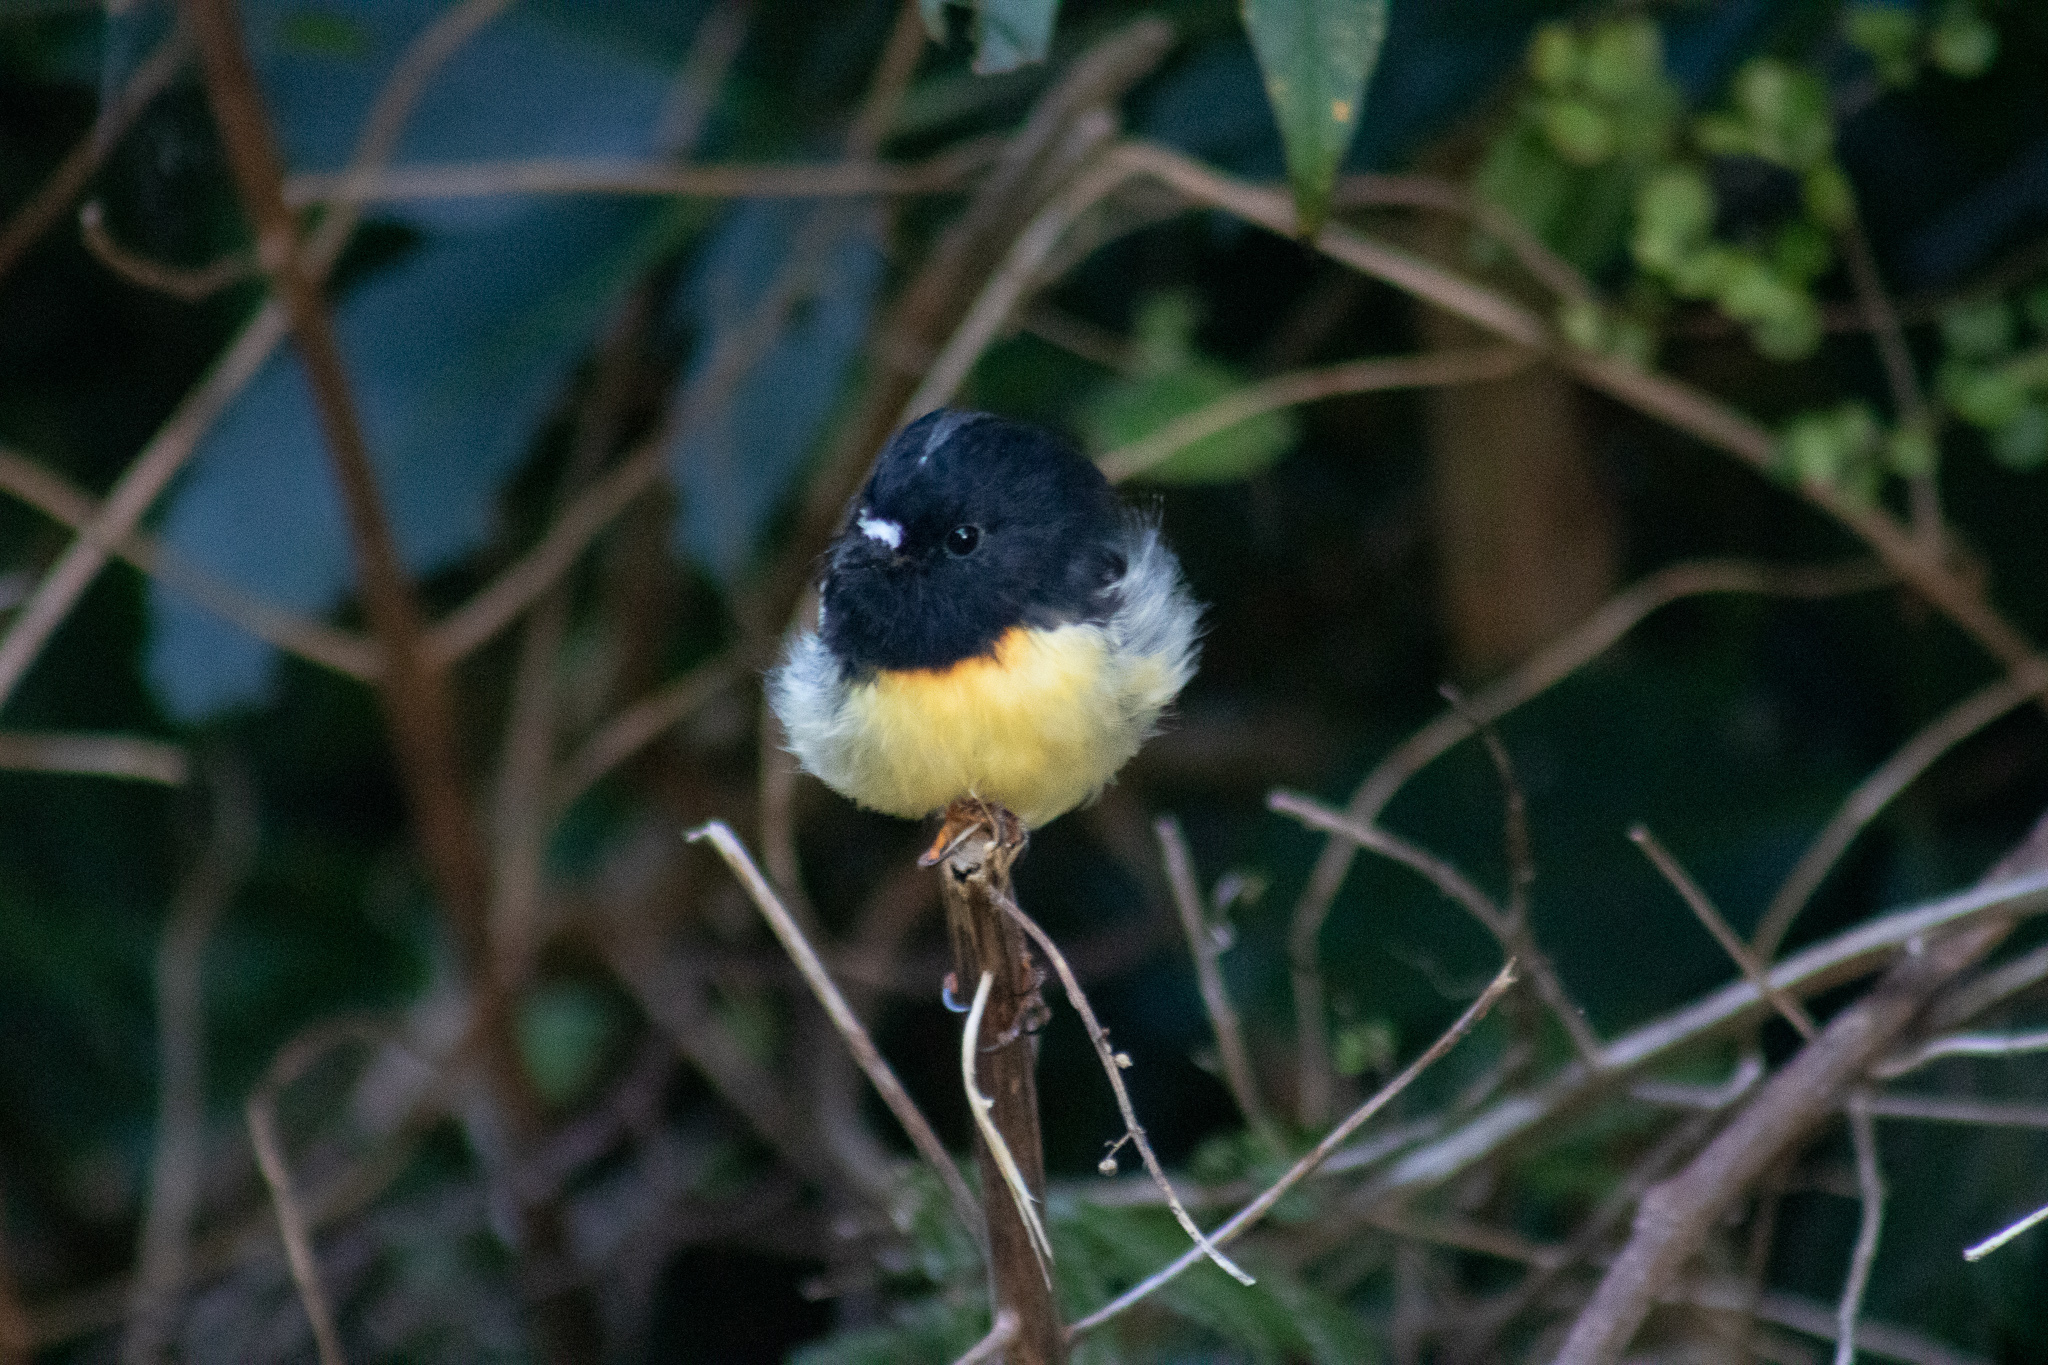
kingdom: Animalia
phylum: Chordata
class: Aves
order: Passeriformes
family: Petroicidae
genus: Petroica
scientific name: Petroica macrocephala
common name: Tomtit
